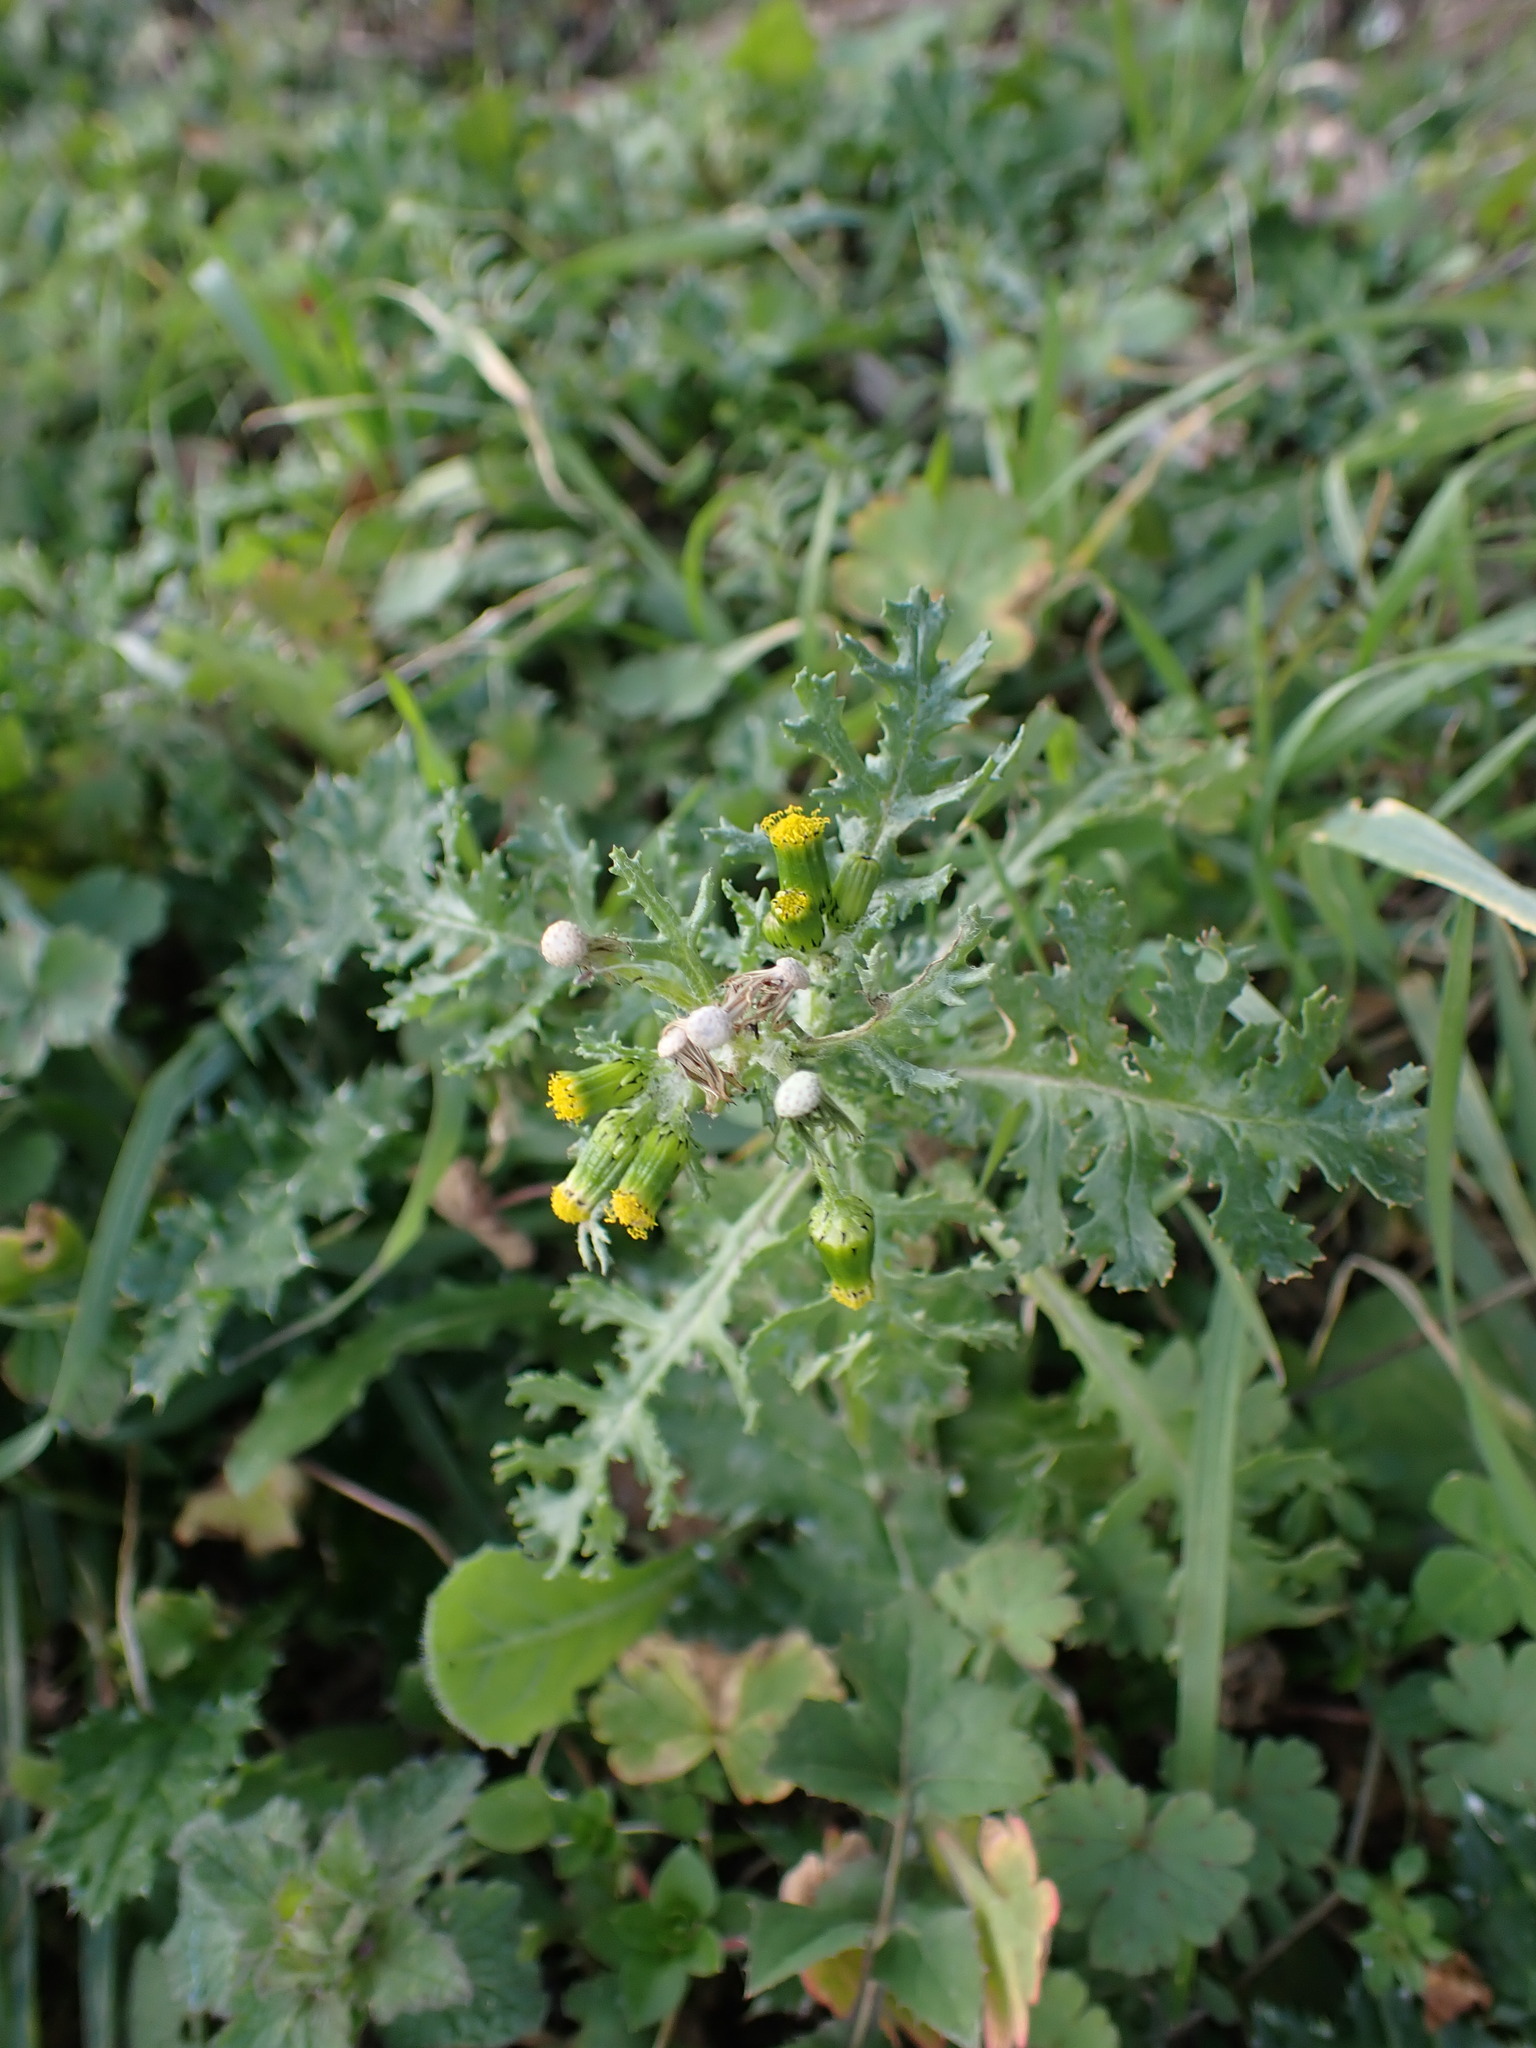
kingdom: Plantae
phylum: Tracheophyta
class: Magnoliopsida
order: Asterales
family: Asteraceae
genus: Senecio
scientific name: Senecio vulgaris
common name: Old-man-in-the-spring
